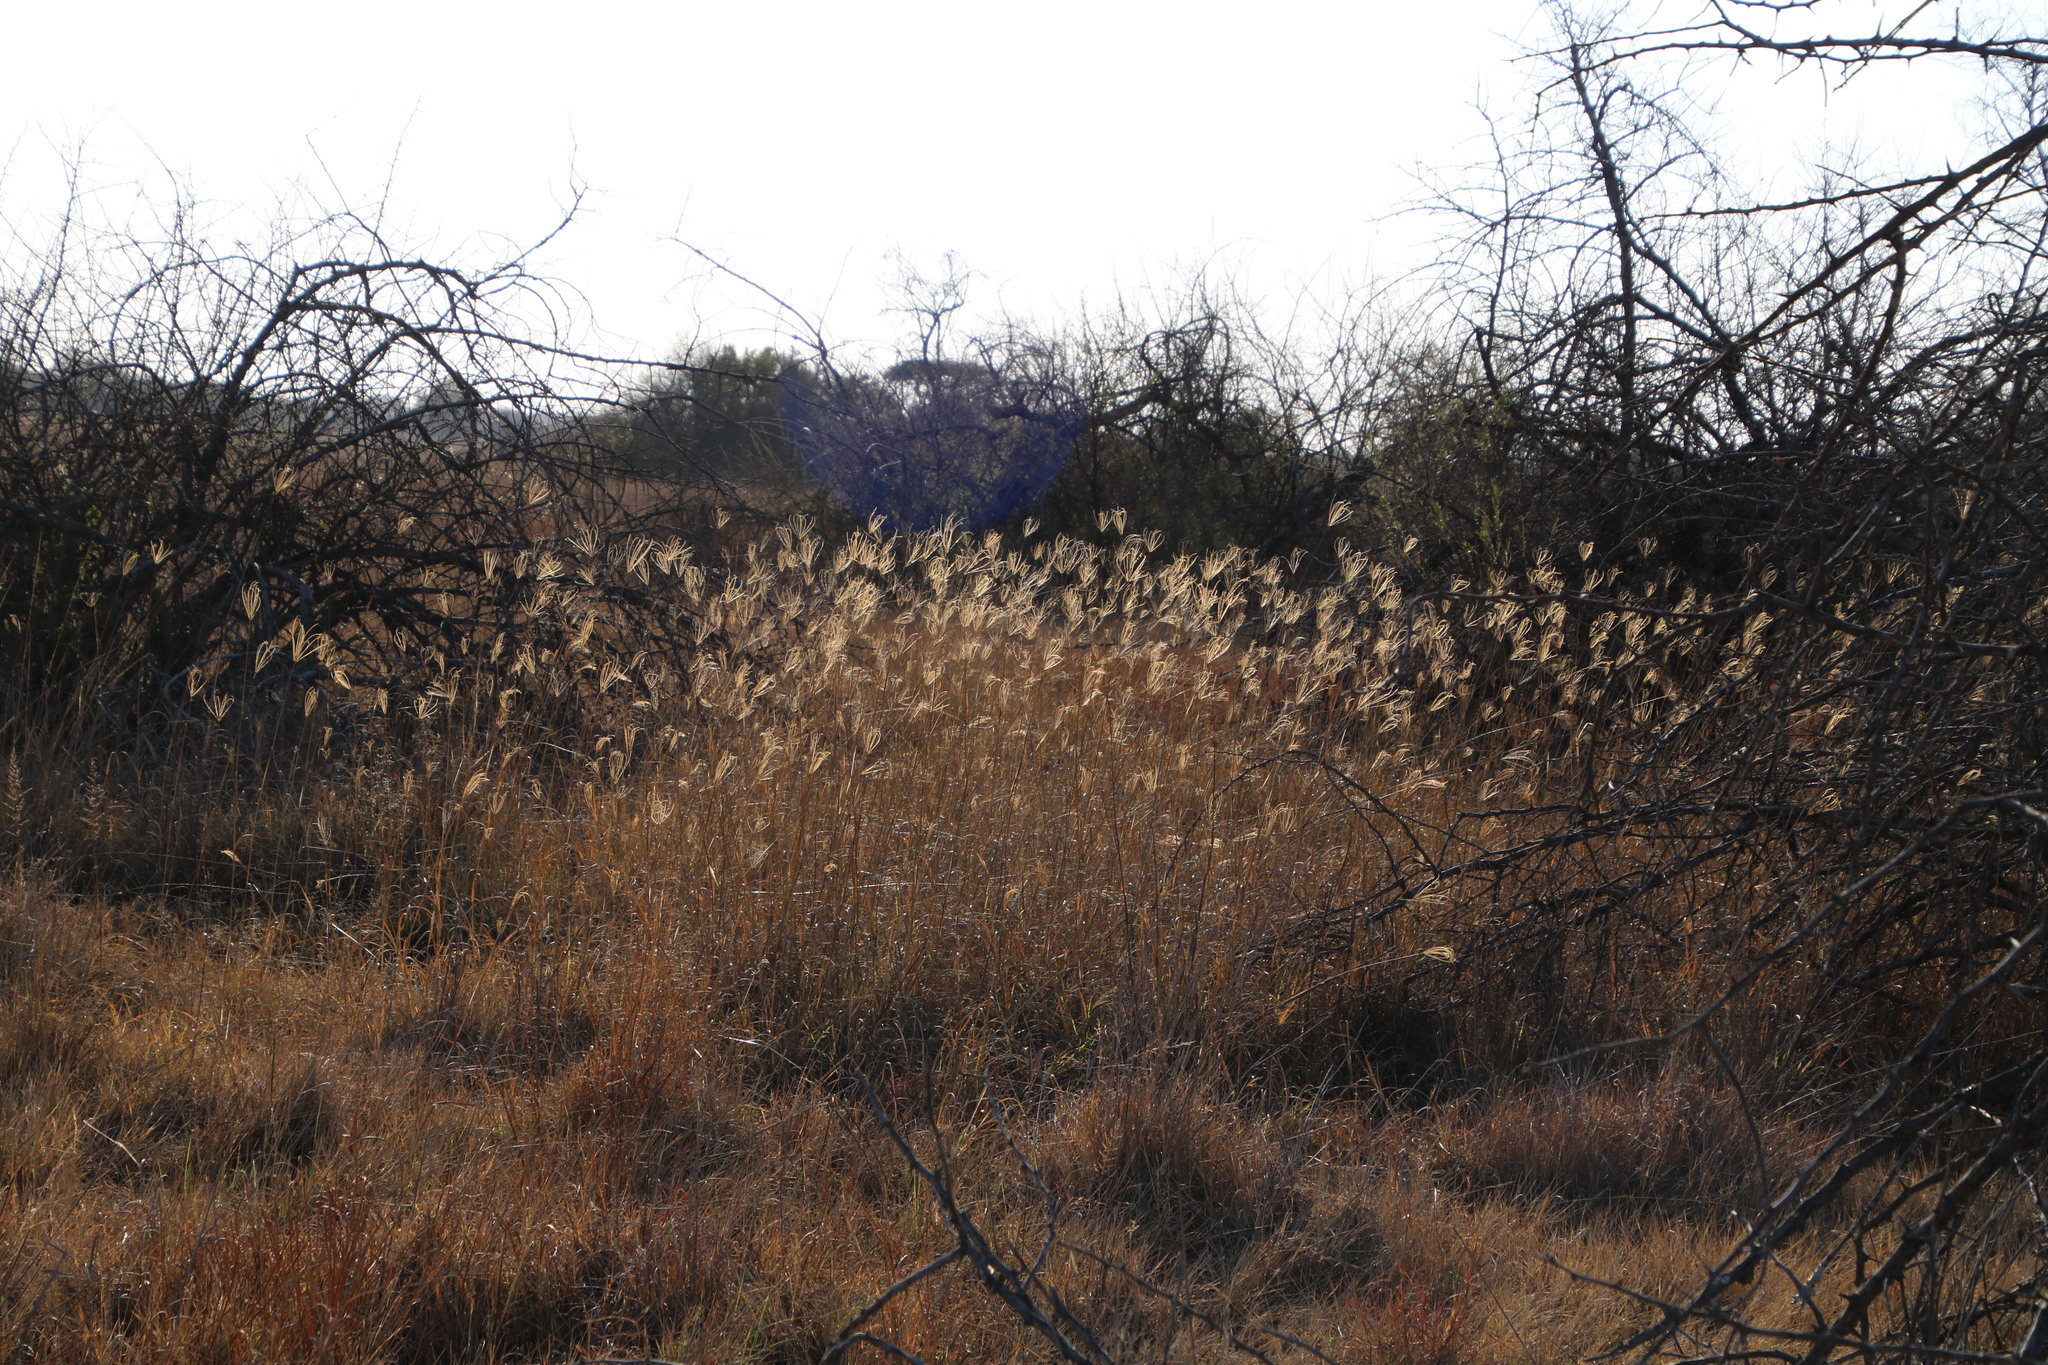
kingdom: Plantae
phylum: Tracheophyta
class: Liliopsida
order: Poales
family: Poaceae
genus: Chloris
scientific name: Chloris gayana
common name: Rhodes grass
